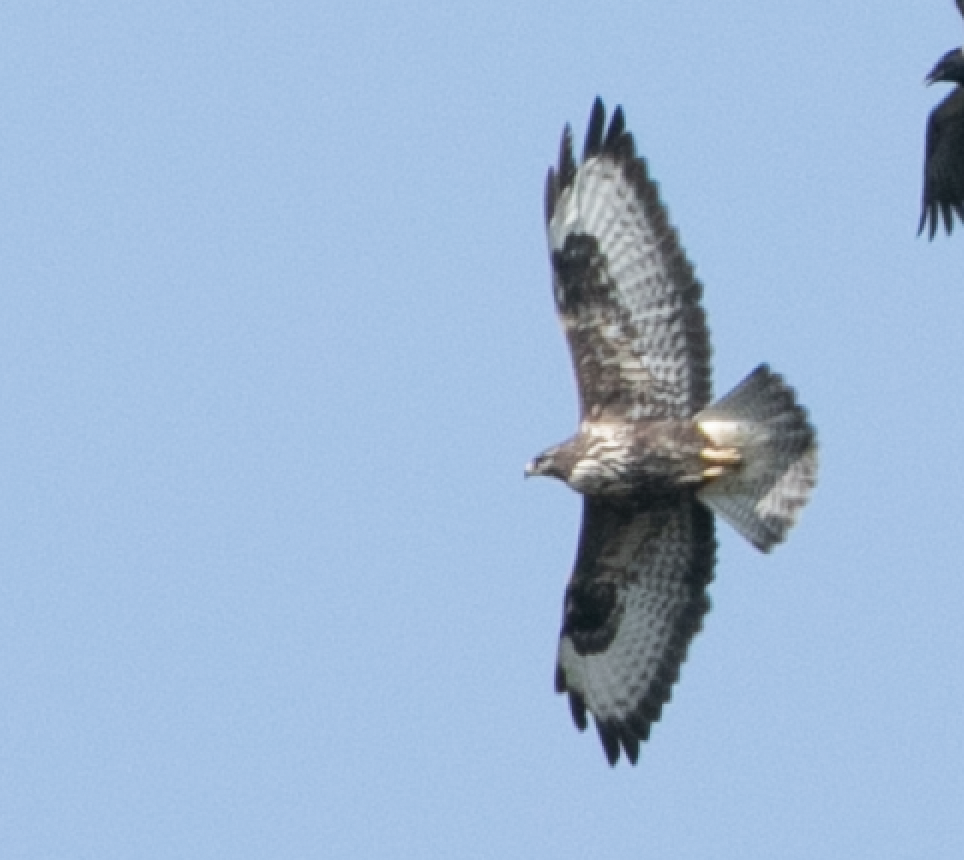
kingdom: Animalia
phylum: Chordata
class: Aves
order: Accipitriformes
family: Accipitridae
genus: Buteo
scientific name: Buteo buteo
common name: Common buzzard
